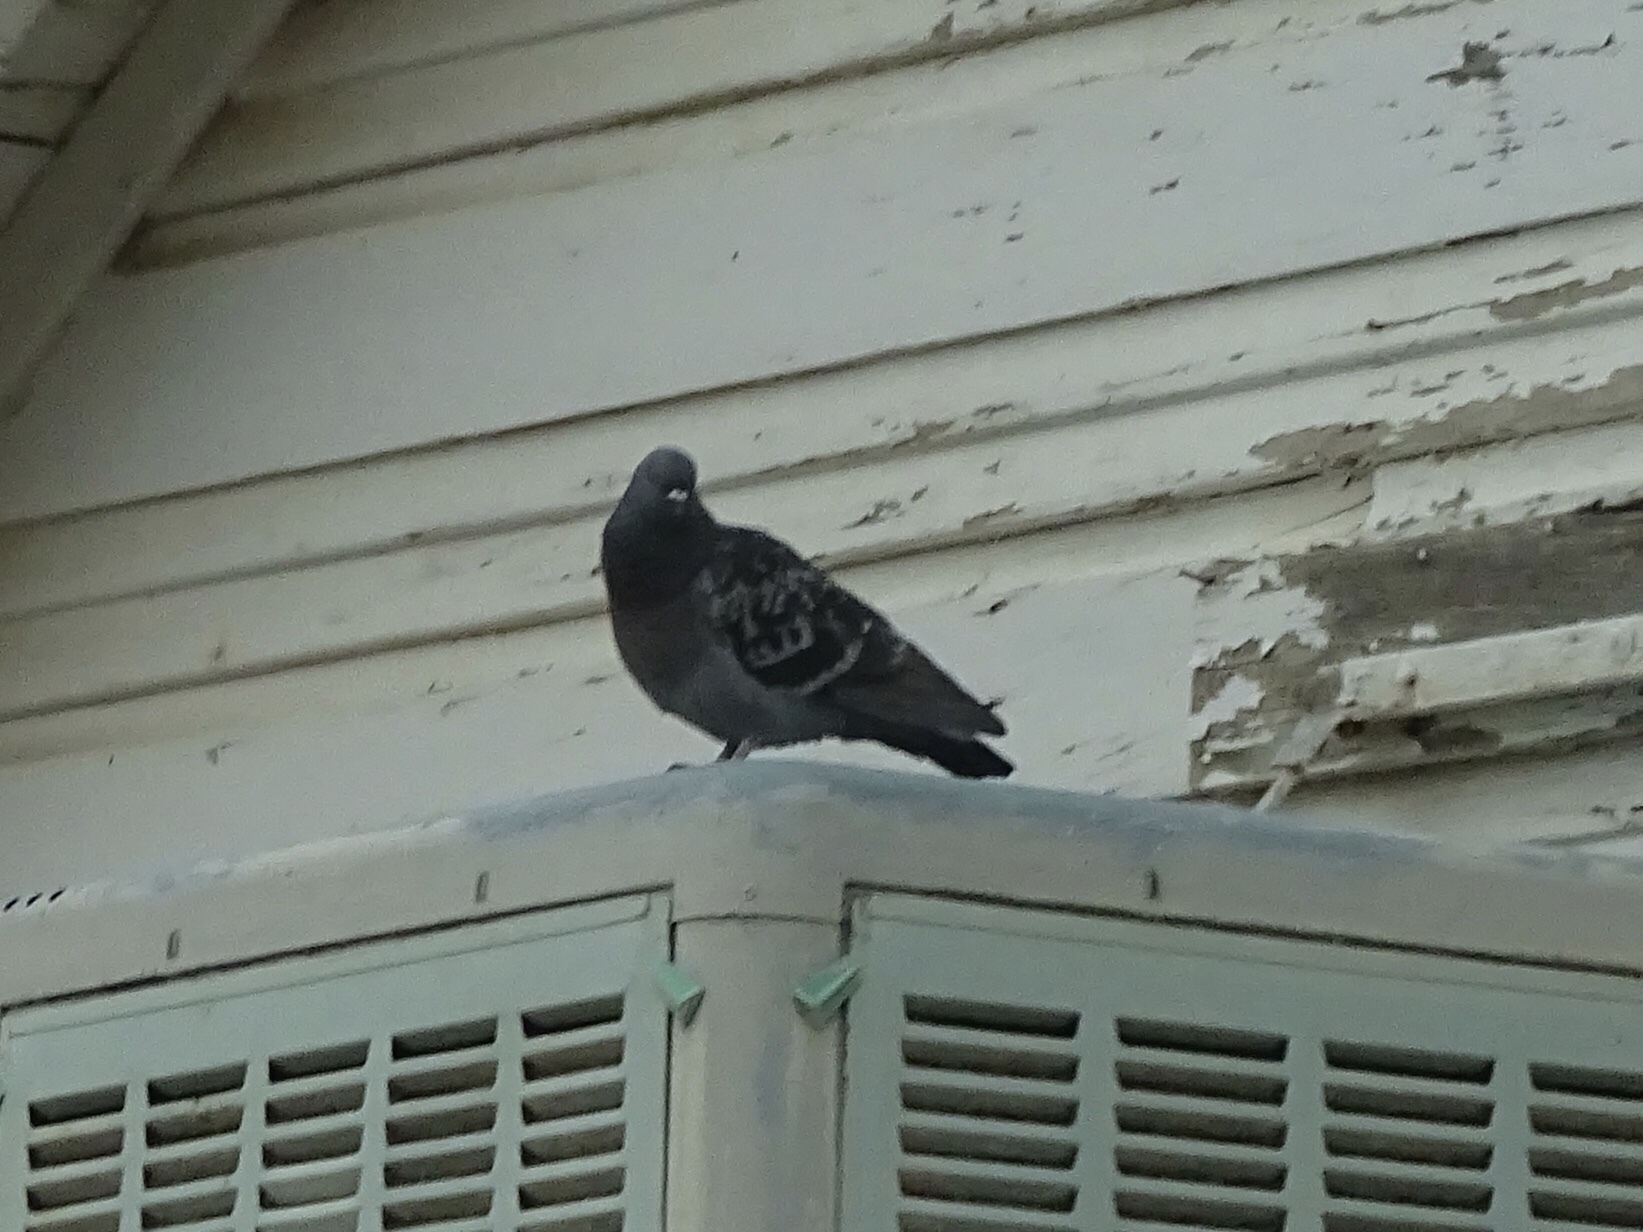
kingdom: Animalia
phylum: Chordata
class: Aves
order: Columbiformes
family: Columbidae
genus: Columba
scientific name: Columba livia
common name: Rock pigeon
